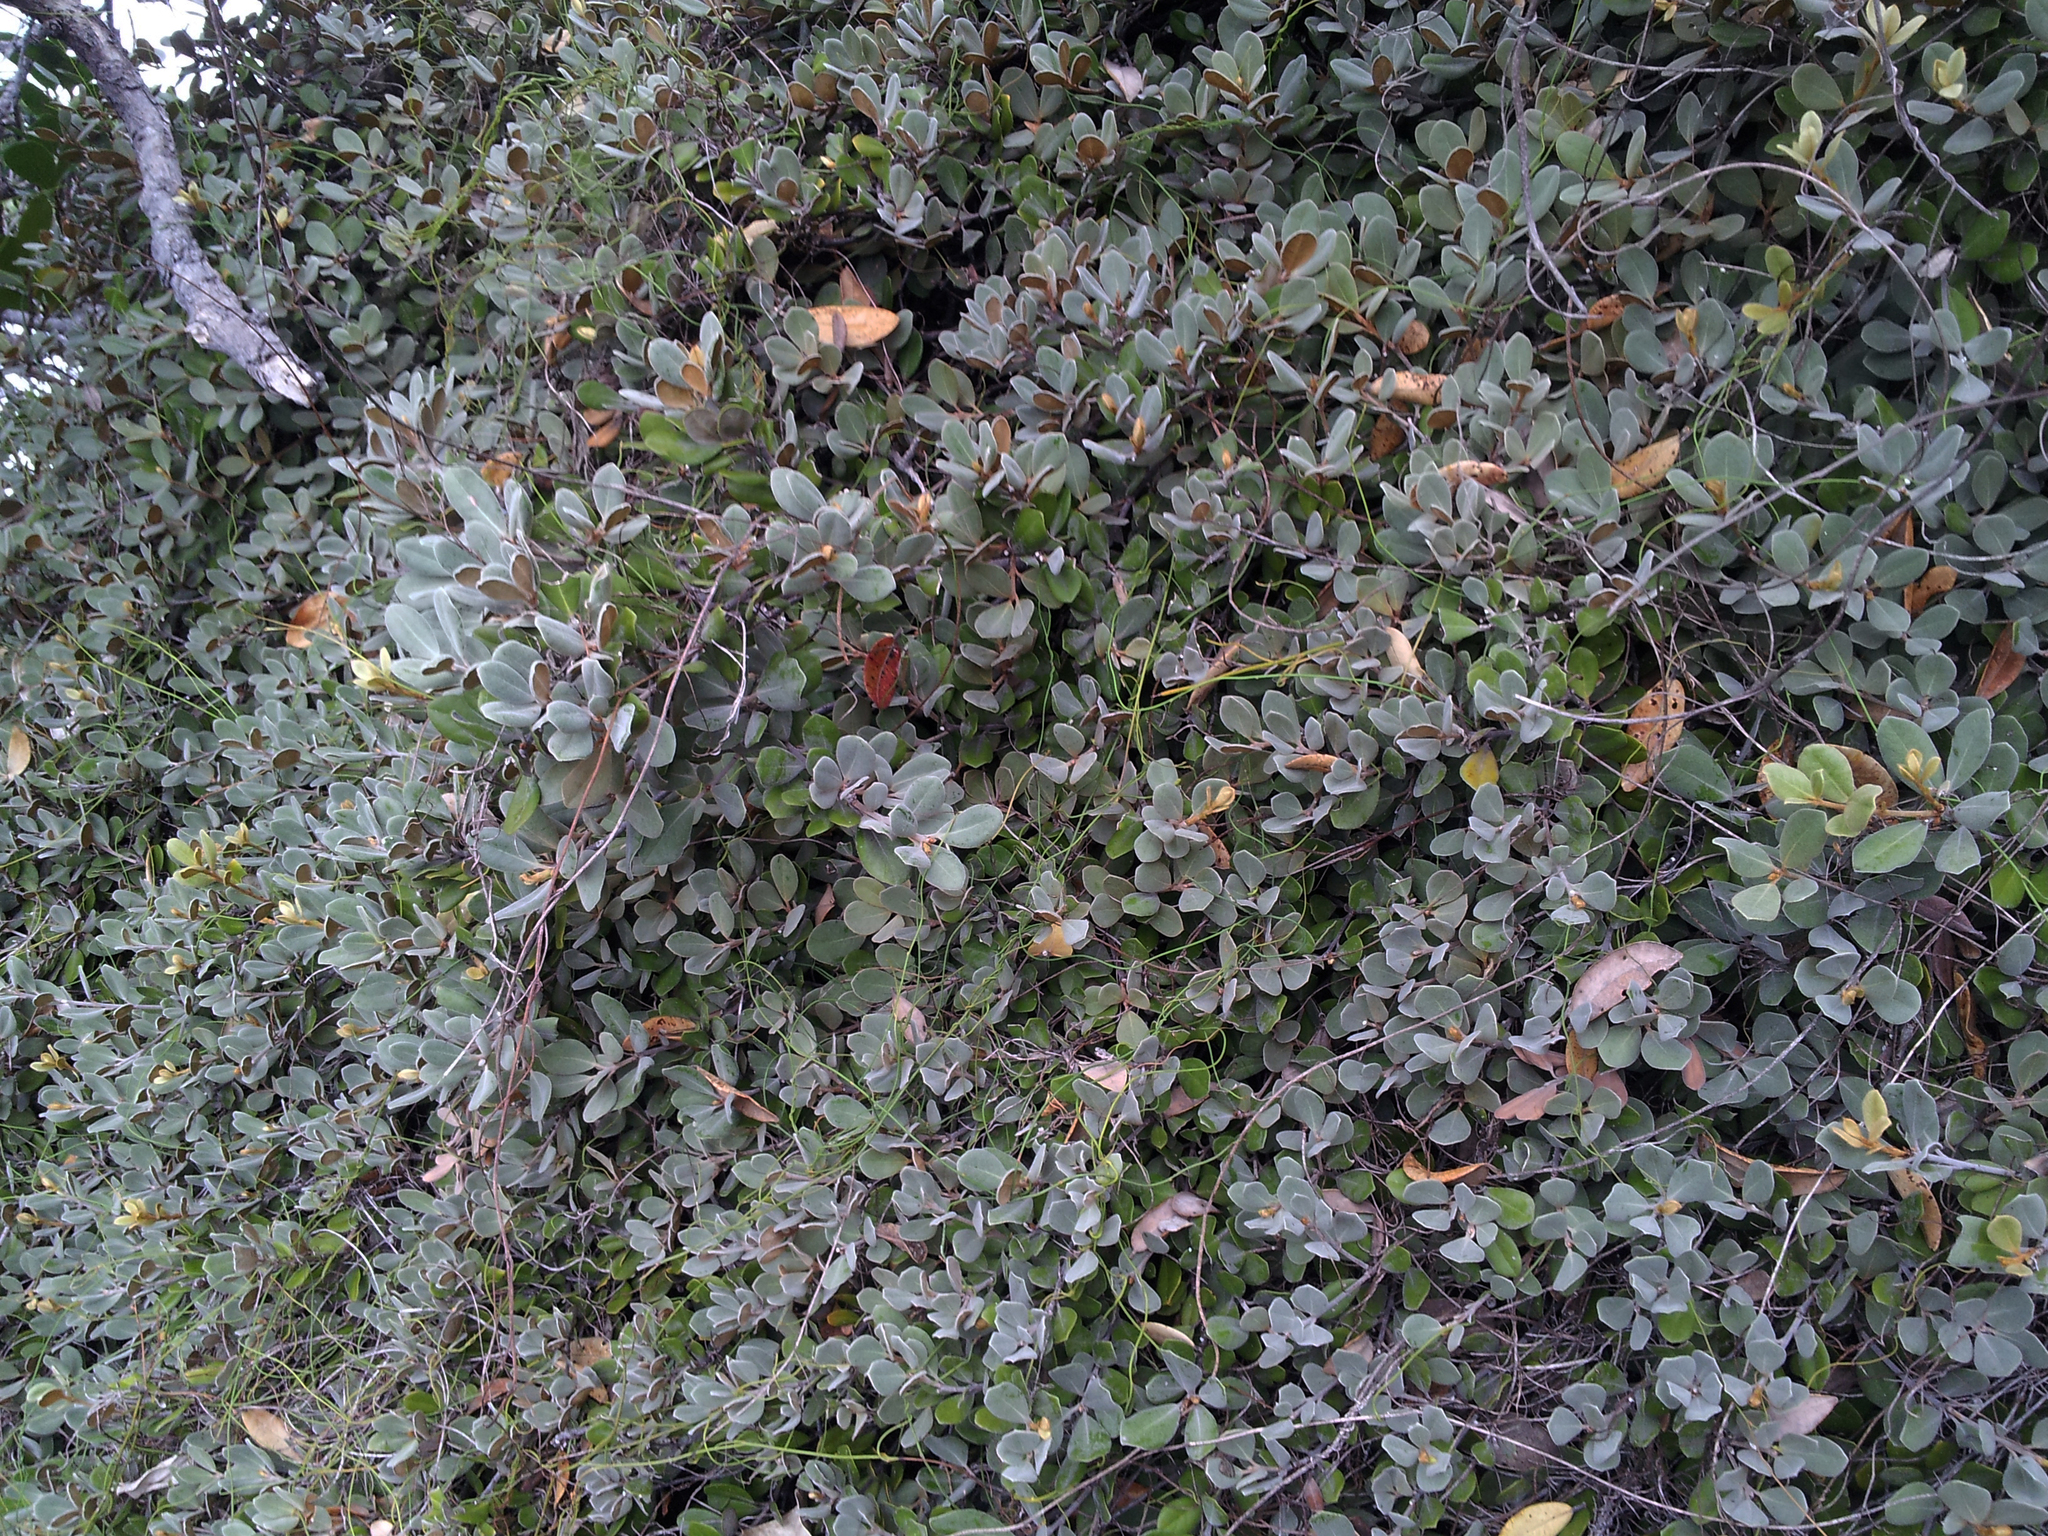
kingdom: Plantae
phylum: Tracheophyta
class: Magnoliopsida
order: Apiales
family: Pittosporaceae
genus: Pittosporum
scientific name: Pittosporum serpentinum
